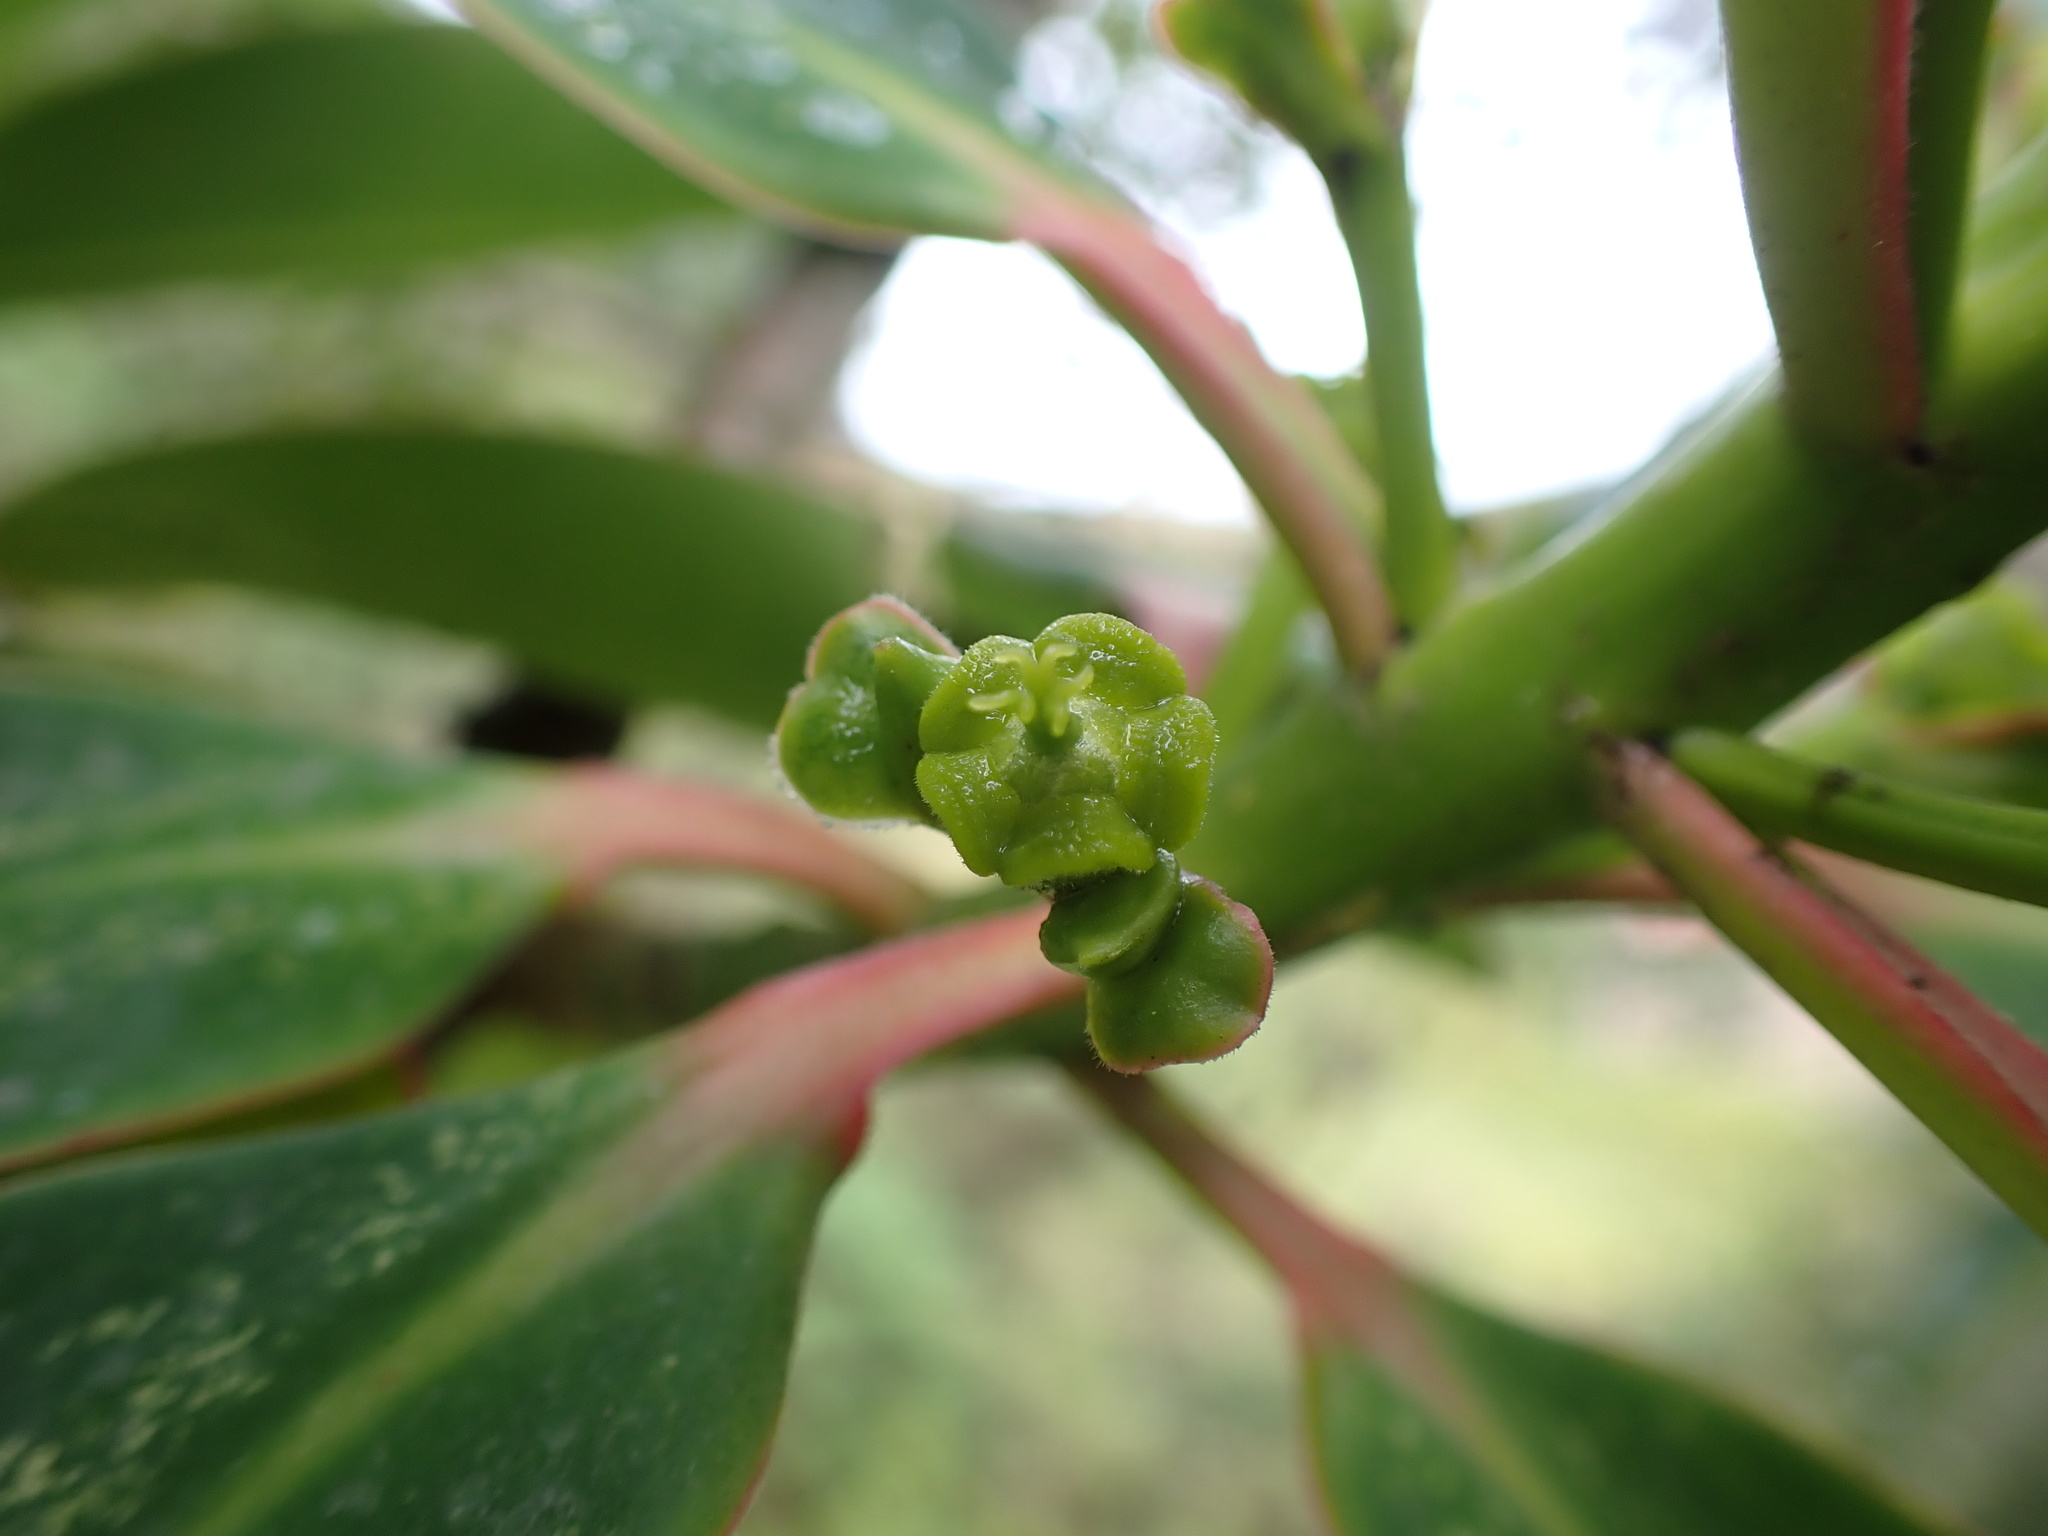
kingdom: Plantae
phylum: Tracheophyta
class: Magnoliopsida
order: Malpighiales
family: Euphorbiaceae
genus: Euphorbia
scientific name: Euphorbia laurifolia
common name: Lechero
